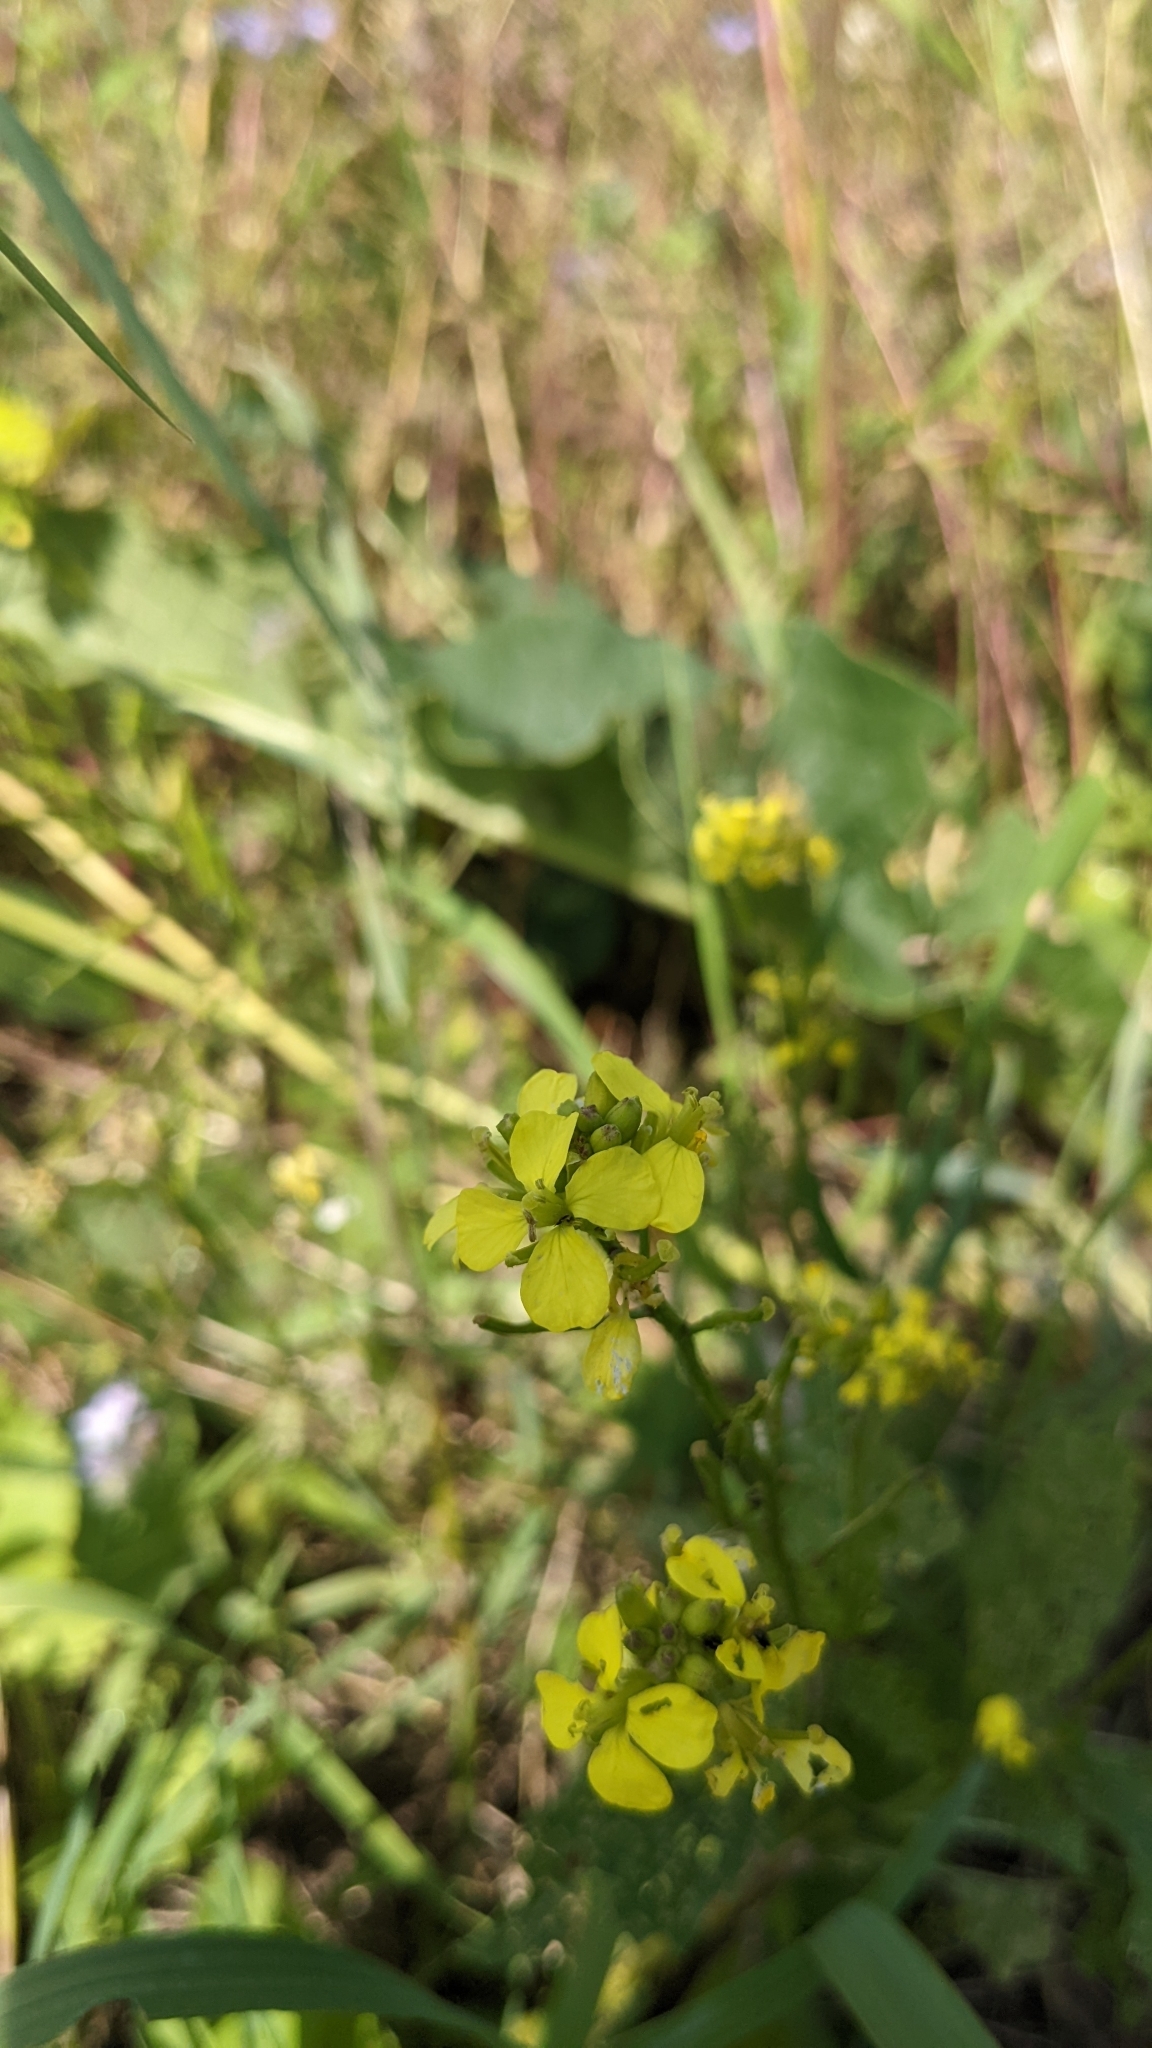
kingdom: Plantae
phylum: Tracheophyta
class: Magnoliopsida
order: Brassicales
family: Brassicaceae
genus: Sinapis
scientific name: Sinapis arvensis
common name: Charlock
